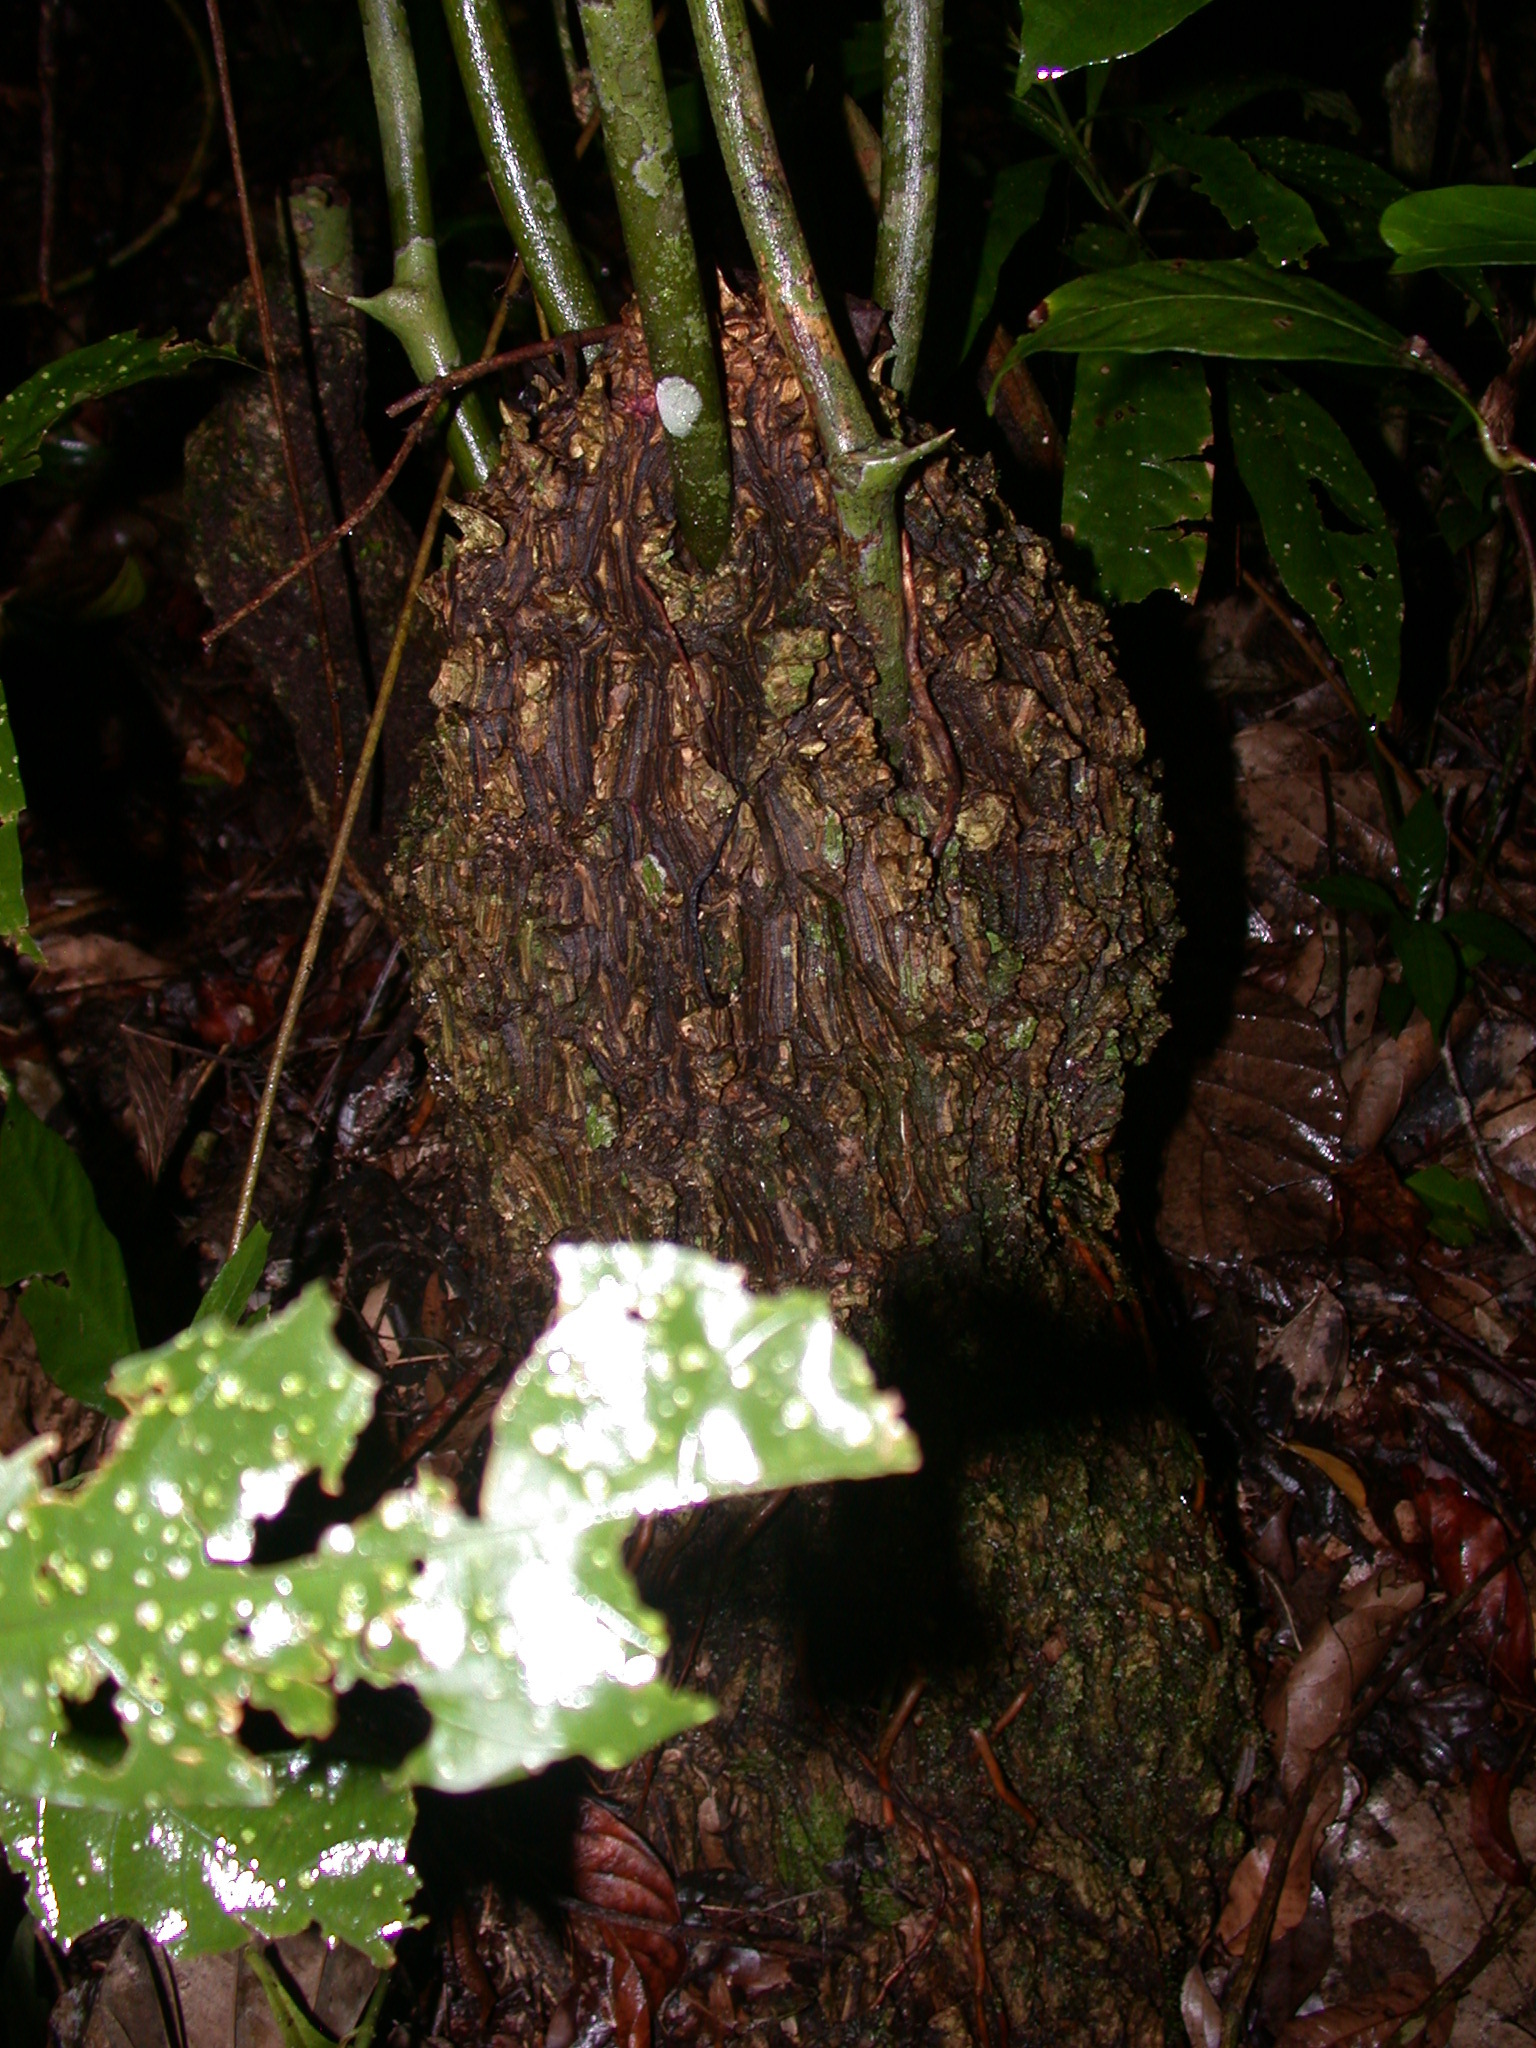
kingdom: Plantae
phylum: Tracheophyta
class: Liliopsida
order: Dioscoreales
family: Dioscoreaceae
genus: Dioscorea
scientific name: Dioscorea bartlettii
